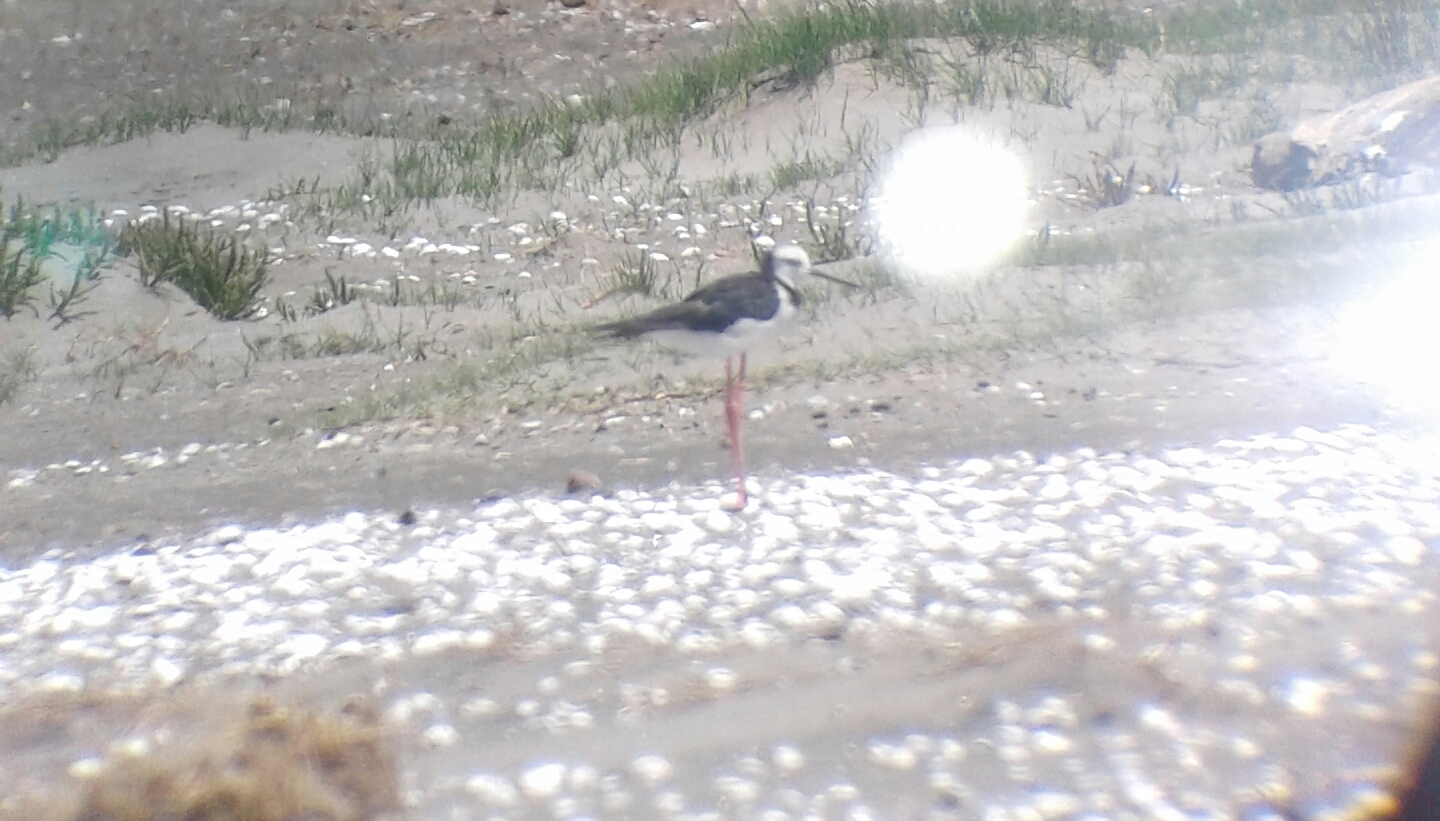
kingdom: Animalia
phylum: Chordata
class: Aves
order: Charadriiformes
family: Recurvirostridae
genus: Himantopus
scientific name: Himantopus leucocephalus
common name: White-headed stilt
